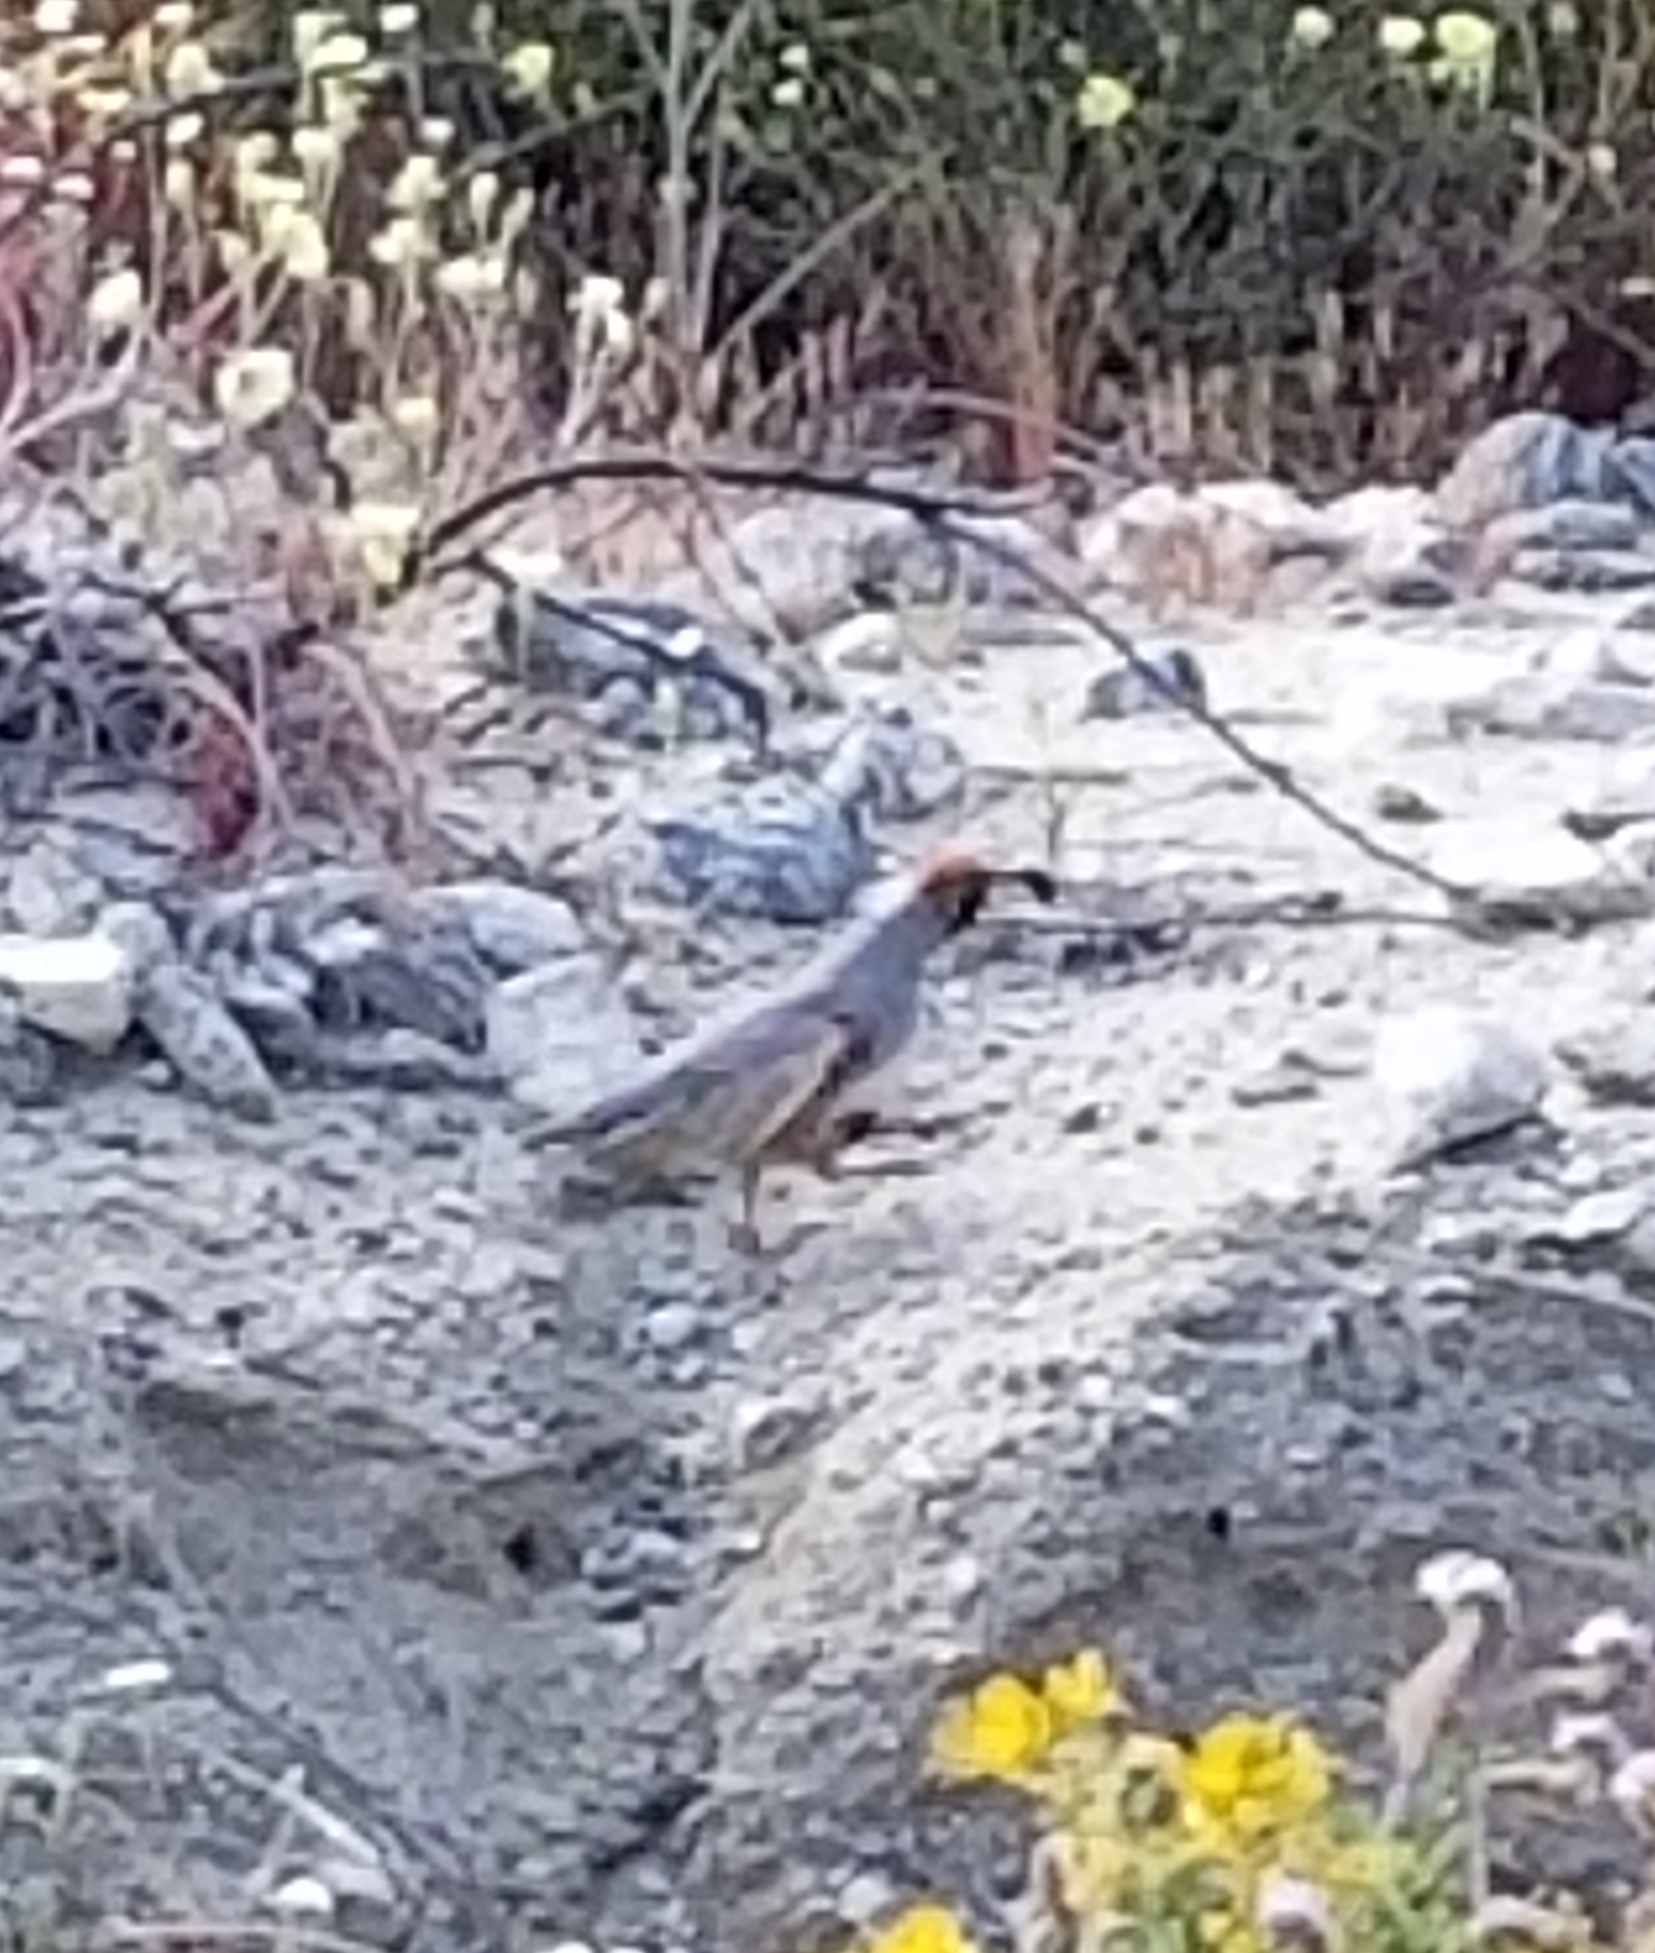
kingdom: Animalia
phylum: Chordata
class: Aves
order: Galliformes
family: Odontophoridae
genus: Callipepla
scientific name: Callipepla gambelii
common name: Gambel's quail
